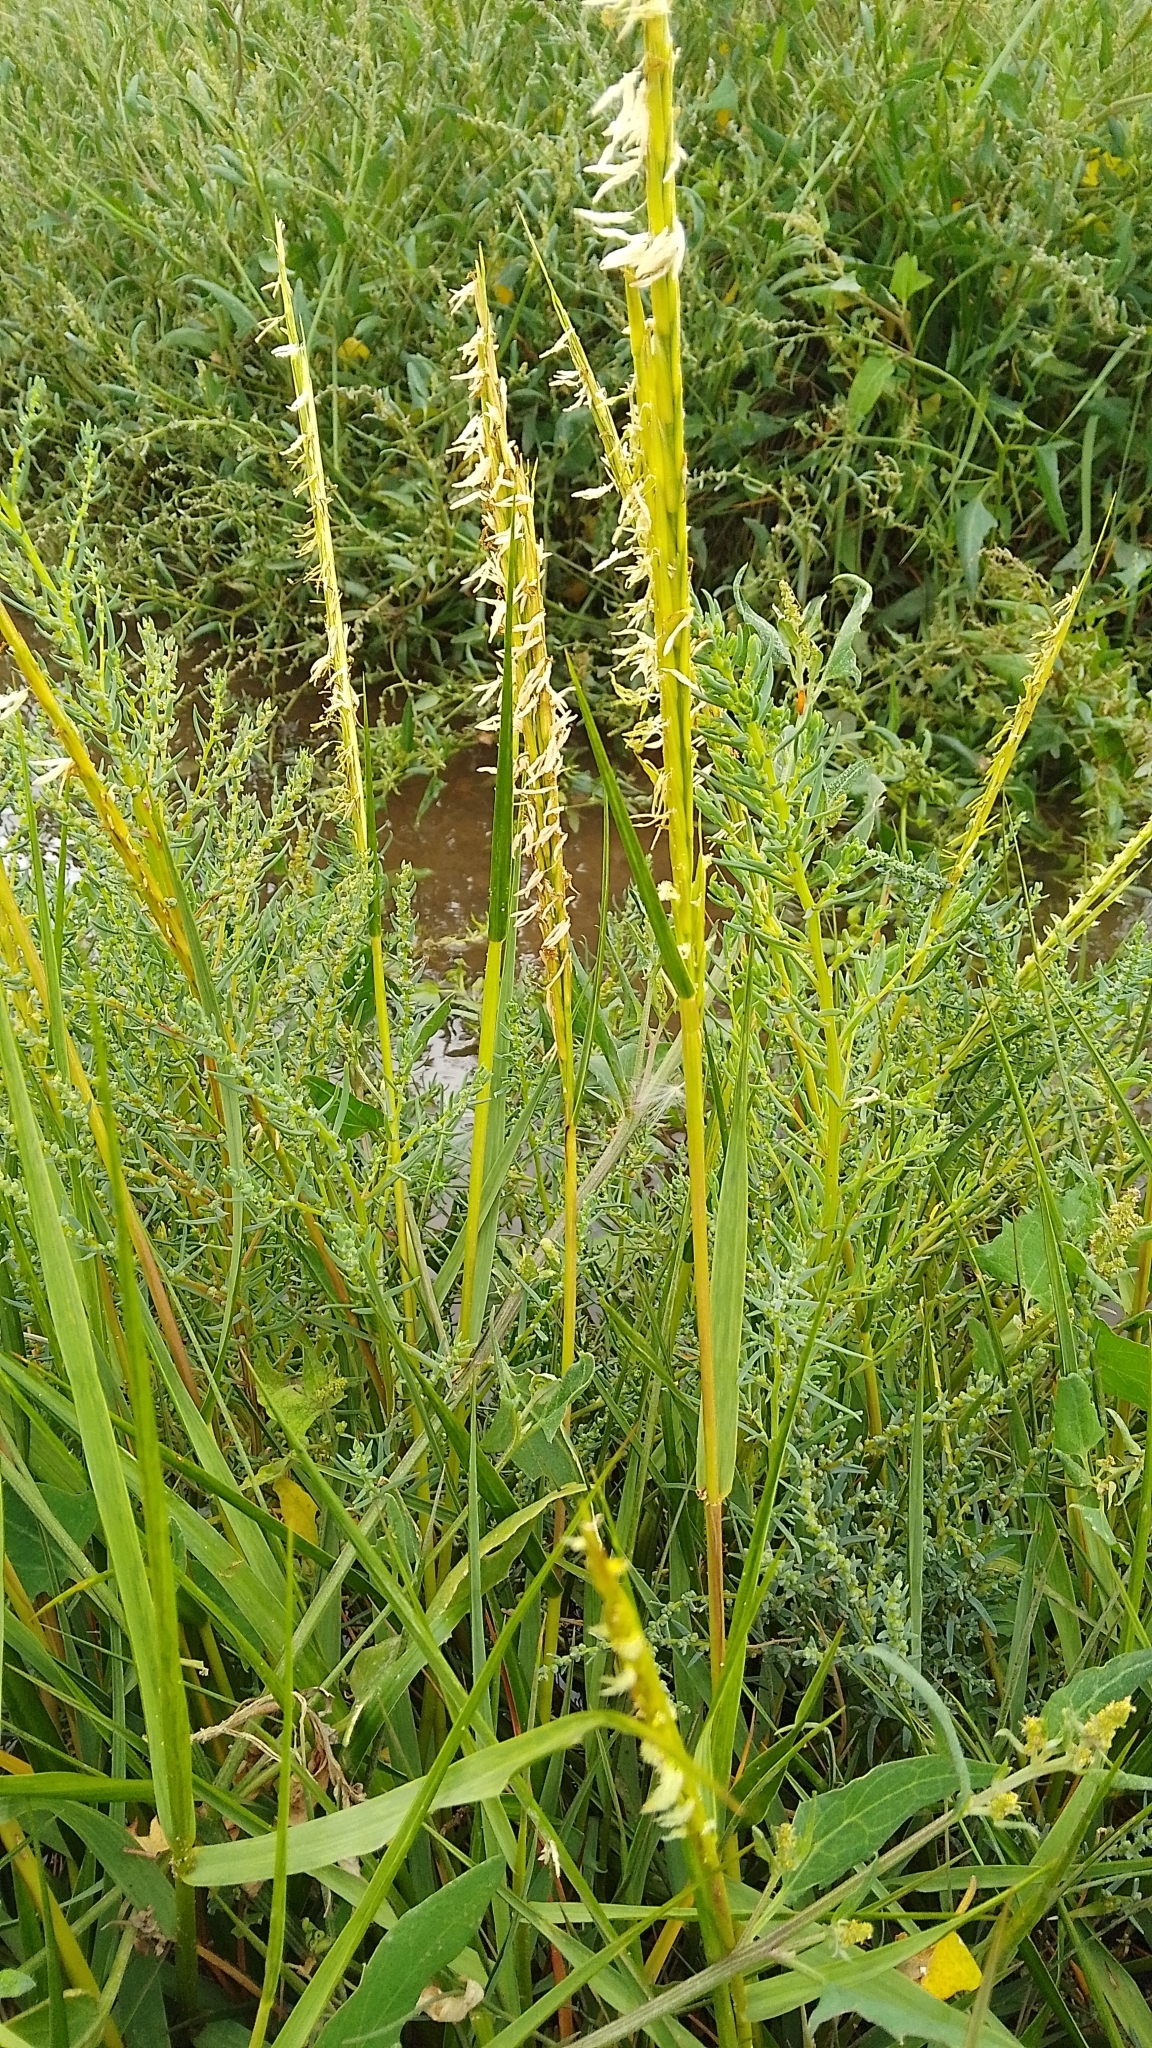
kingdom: Plantae
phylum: Tracheophyta
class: Liliopsida
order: Poales
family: Poaceae
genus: Sporobolus
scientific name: Sporobolus anglicus
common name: English cordgrass
